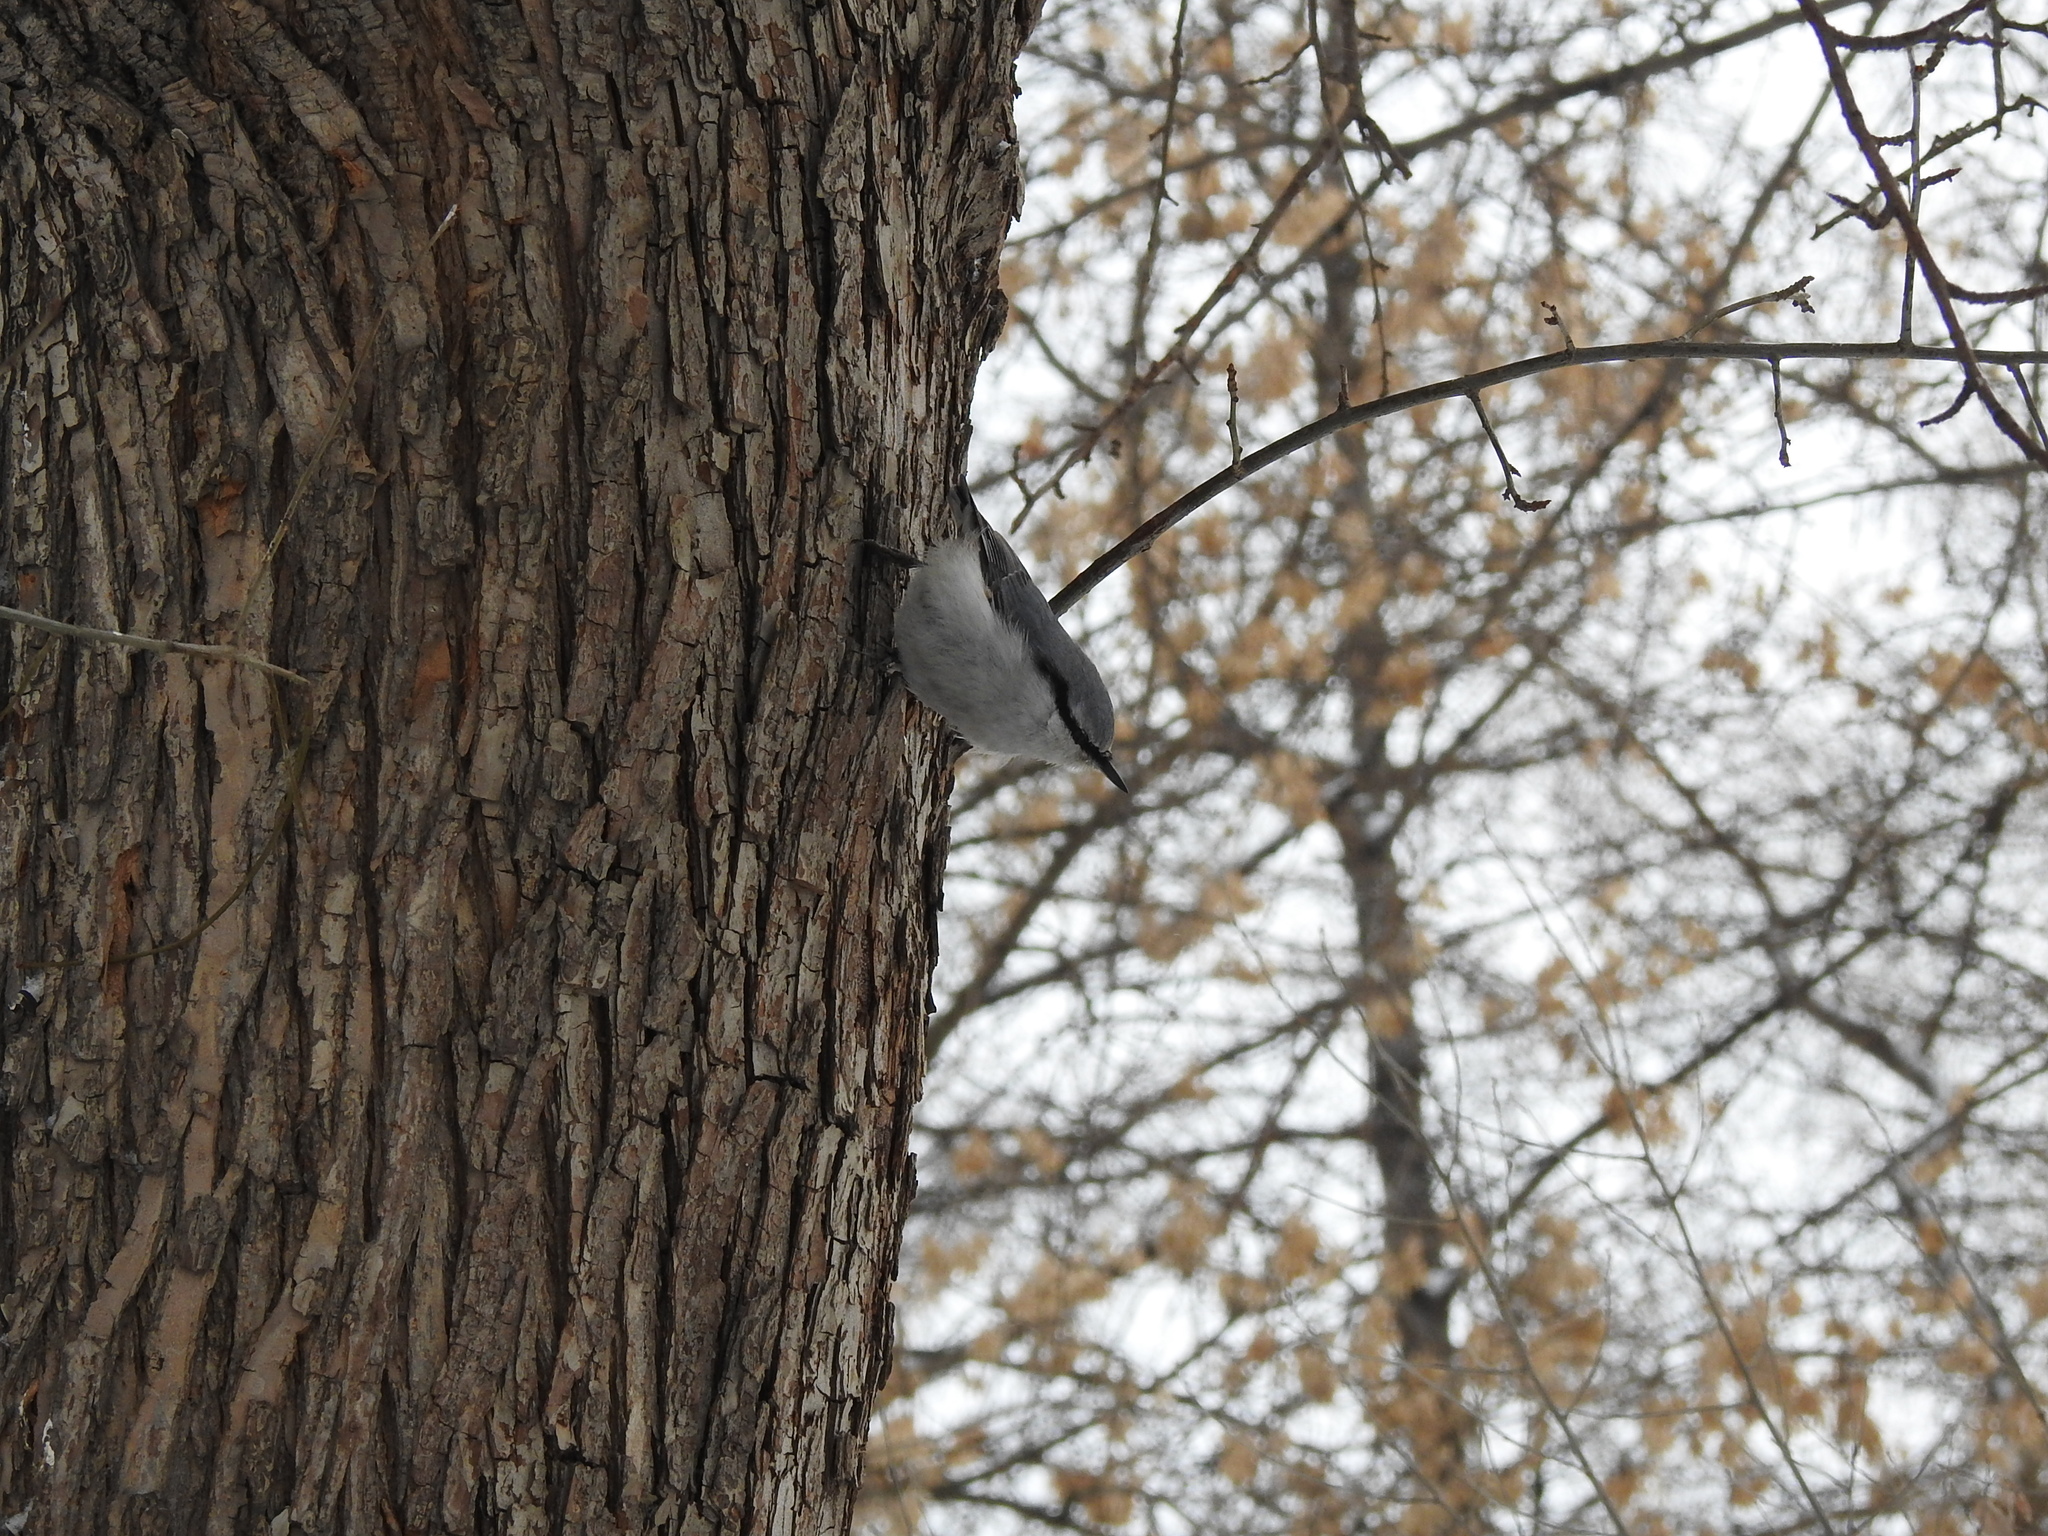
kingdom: Animalia
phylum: Chordata
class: Aves
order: Passeriformes
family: Sittidae
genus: Sitta
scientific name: Sitta europaea
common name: Eurasian nuthatch
